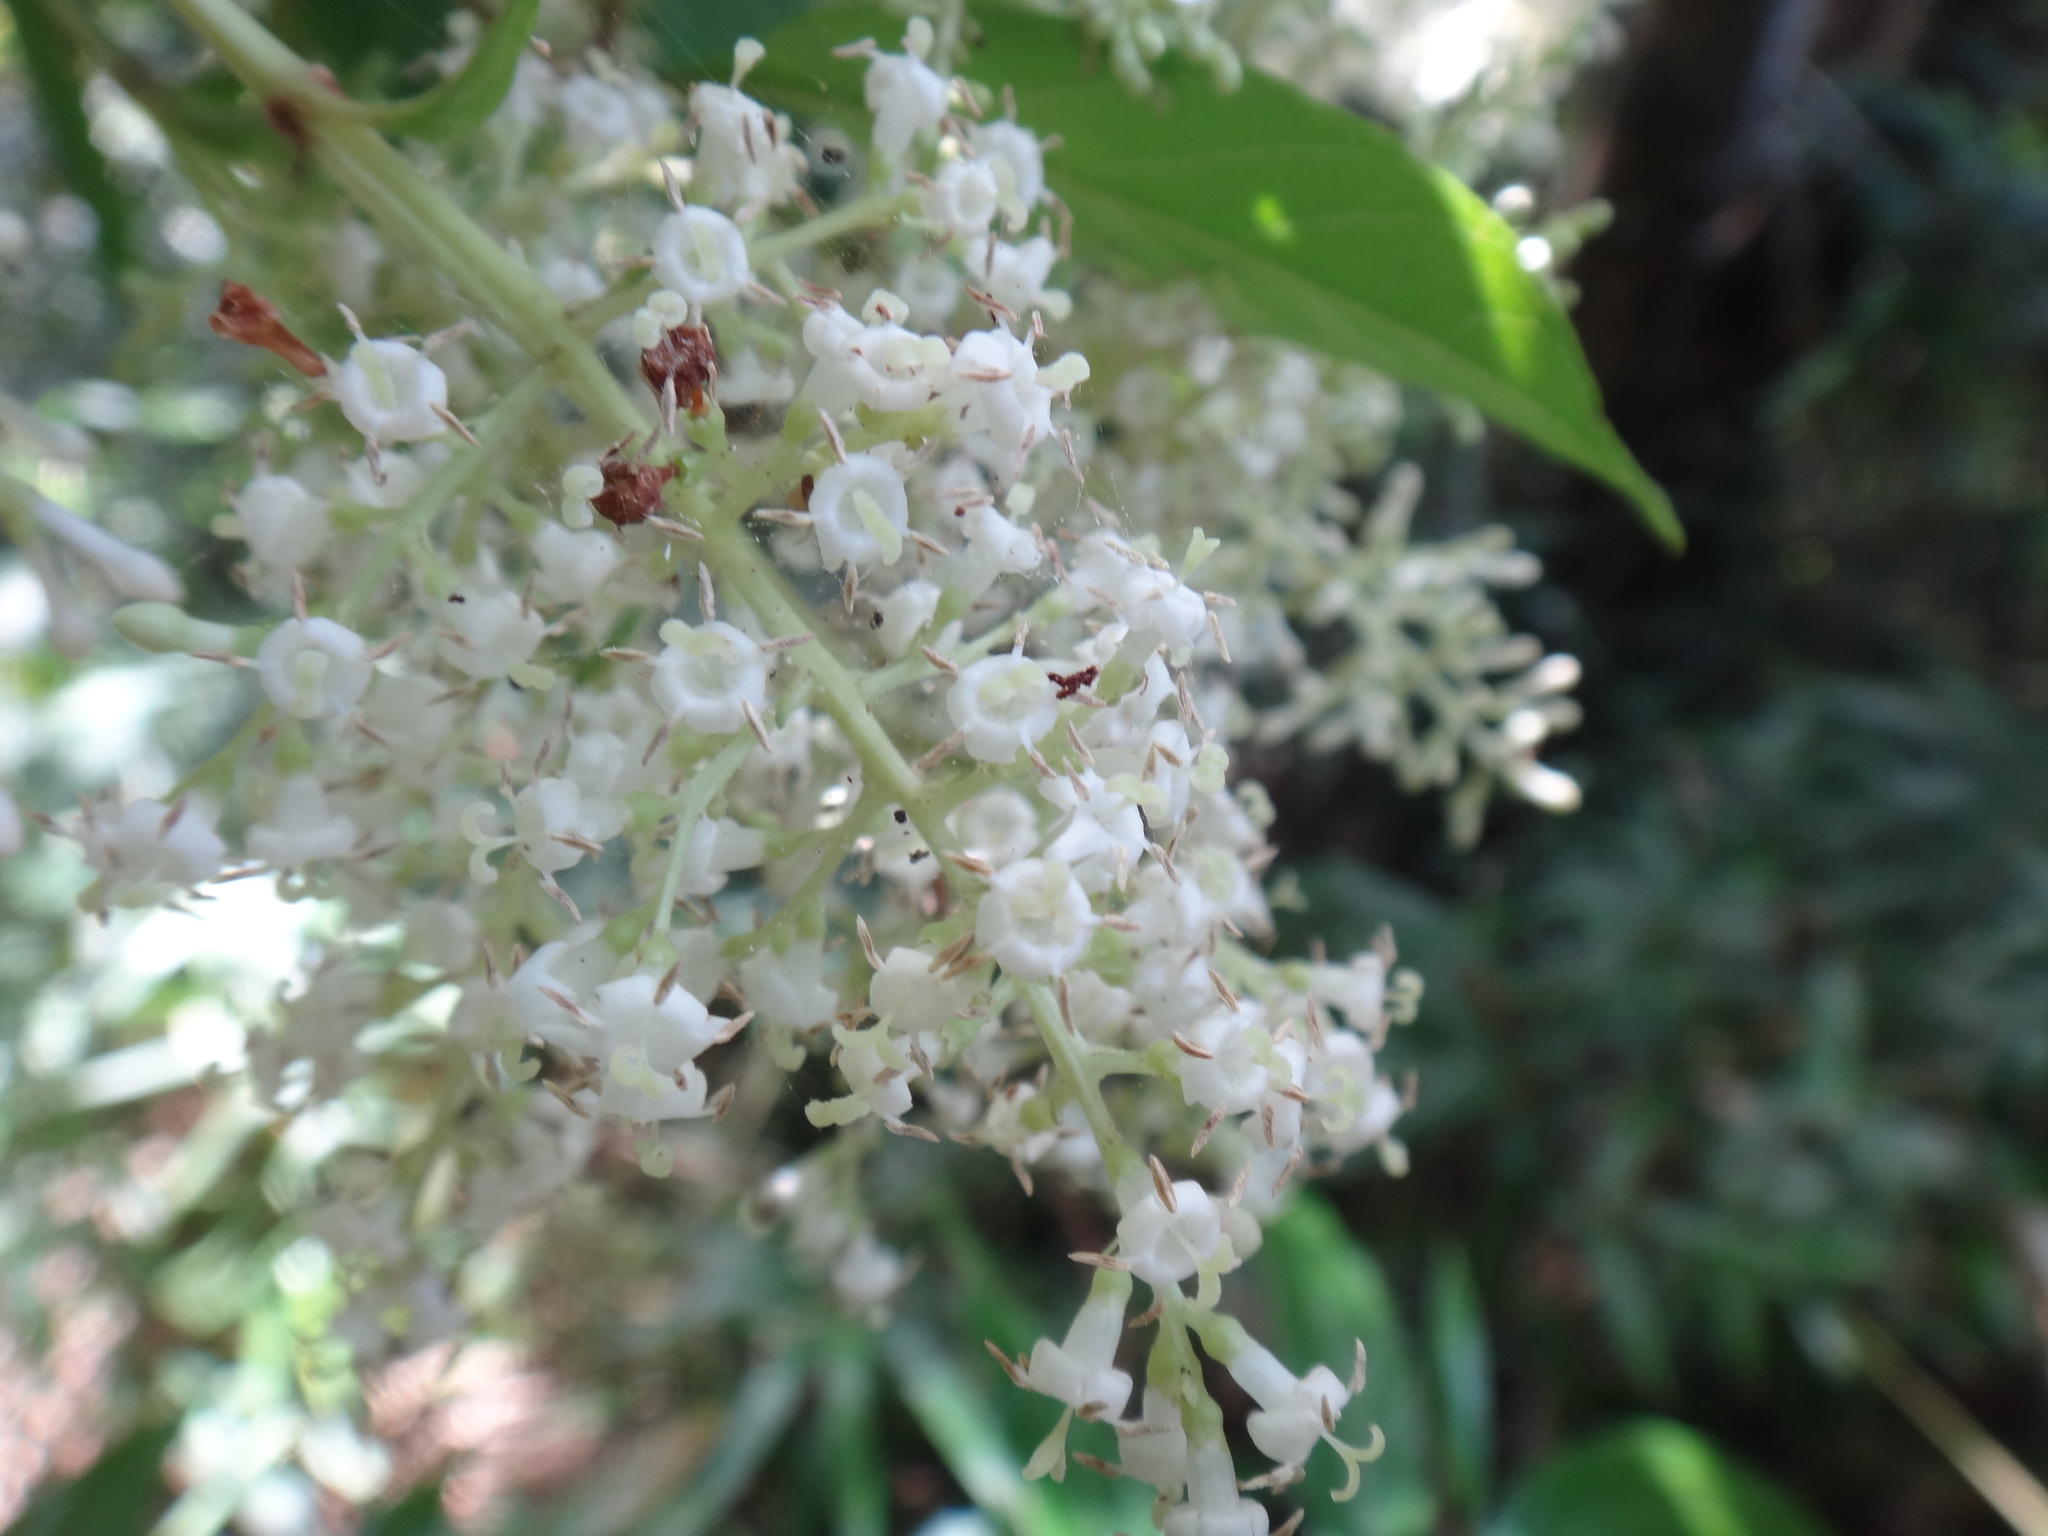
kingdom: Plantae
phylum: Tracheophyta
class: Magnoliopsida
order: Gentianales
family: Rubiaceae
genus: Wendlandia
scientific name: Wendlandia formosana
